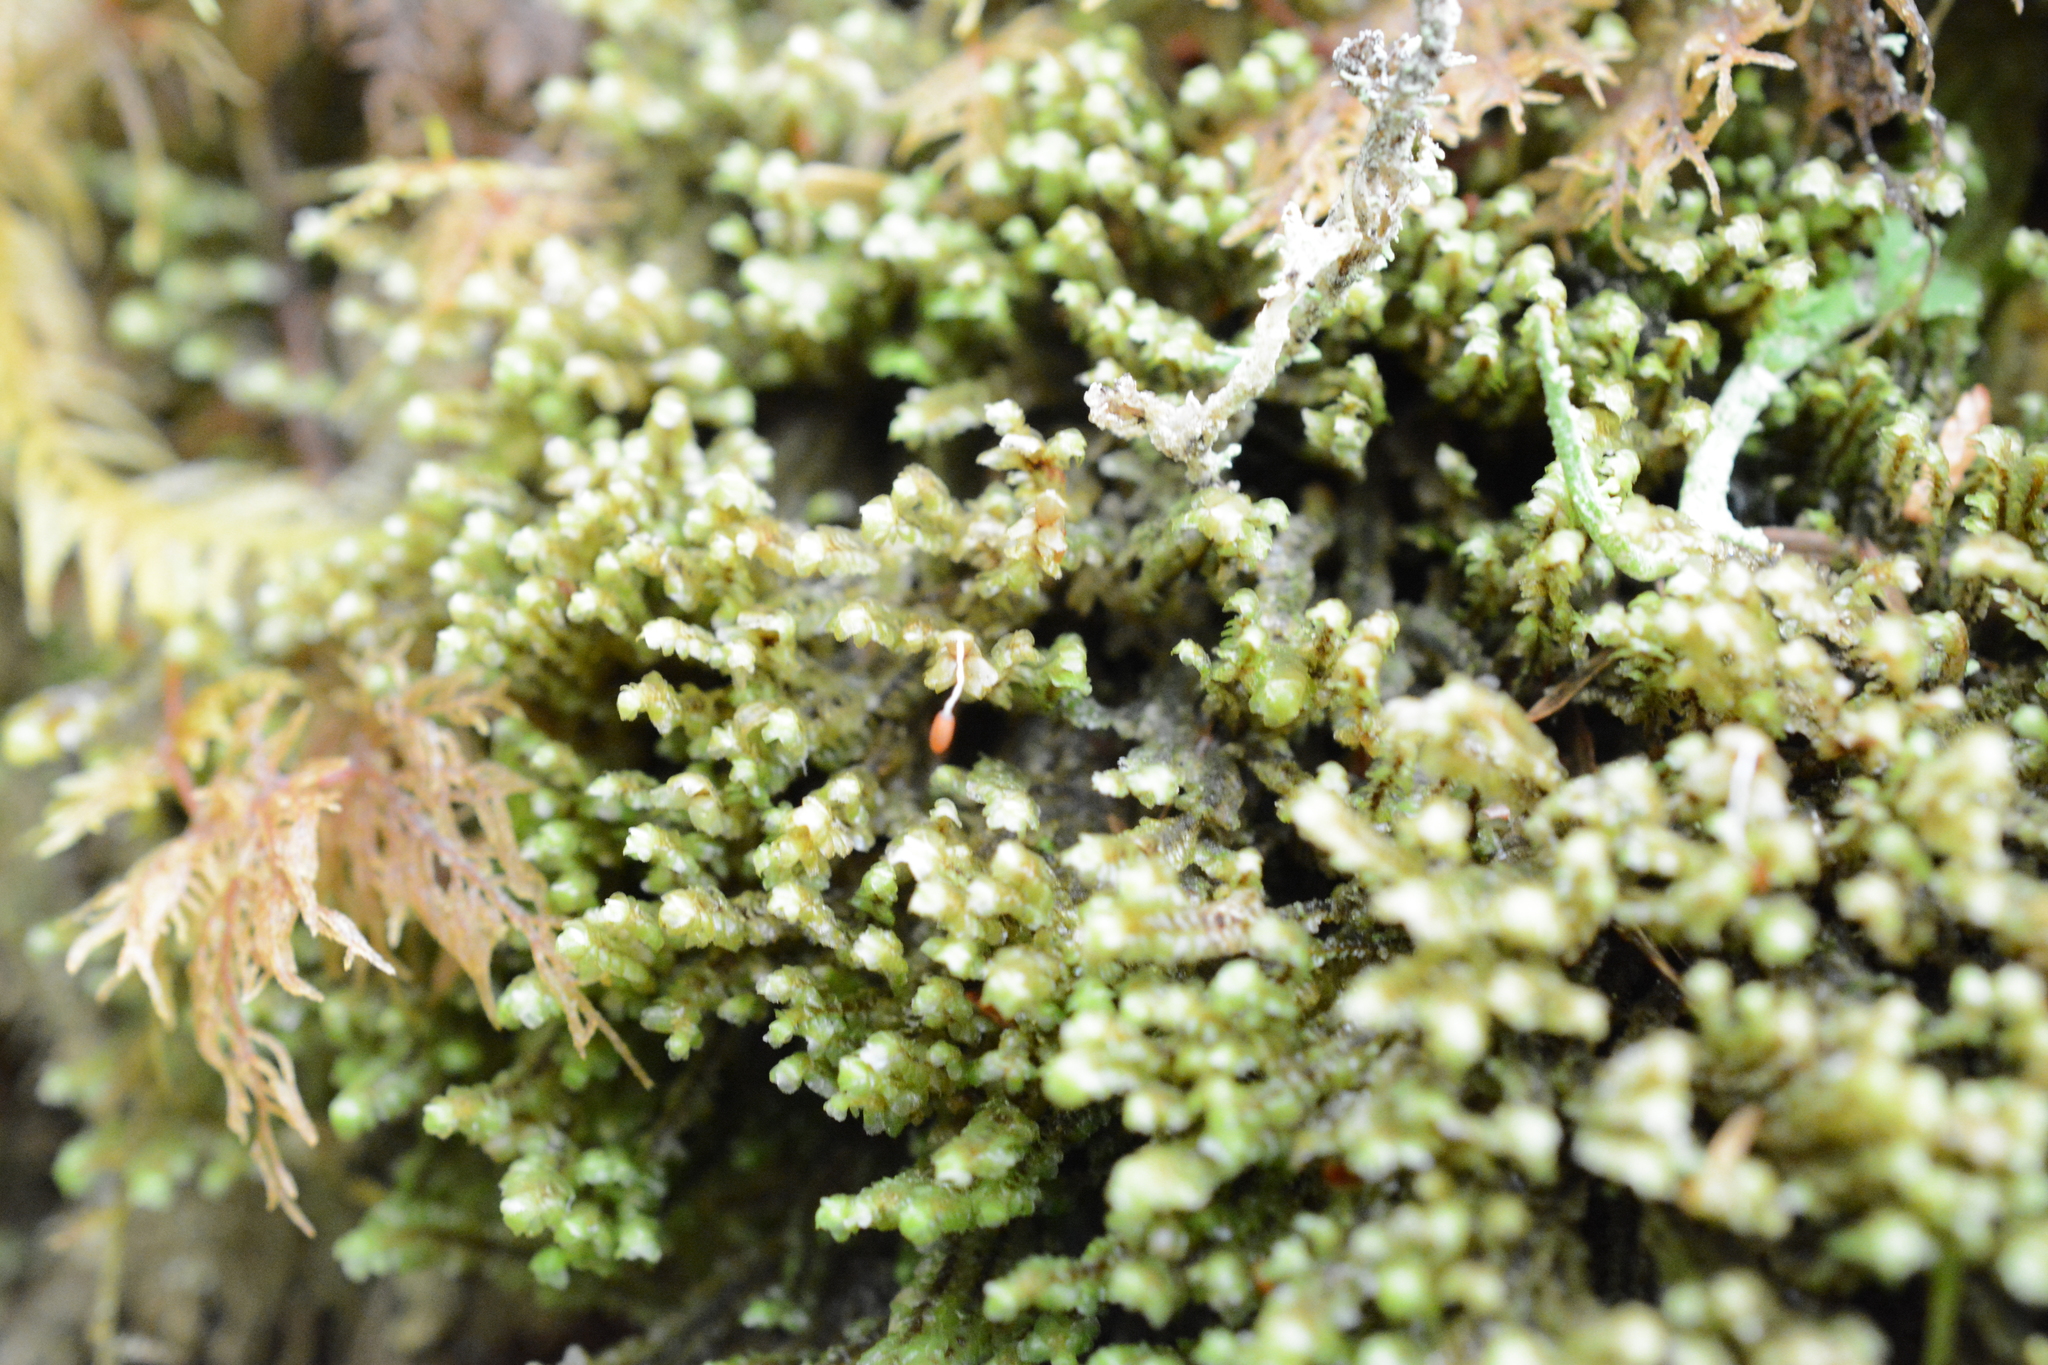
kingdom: Plantae
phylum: Marchantiophyta
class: Jungermanniopsida
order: Jungermanniales
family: Scapaniaceae
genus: Scapania
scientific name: Scapania bolanderi
